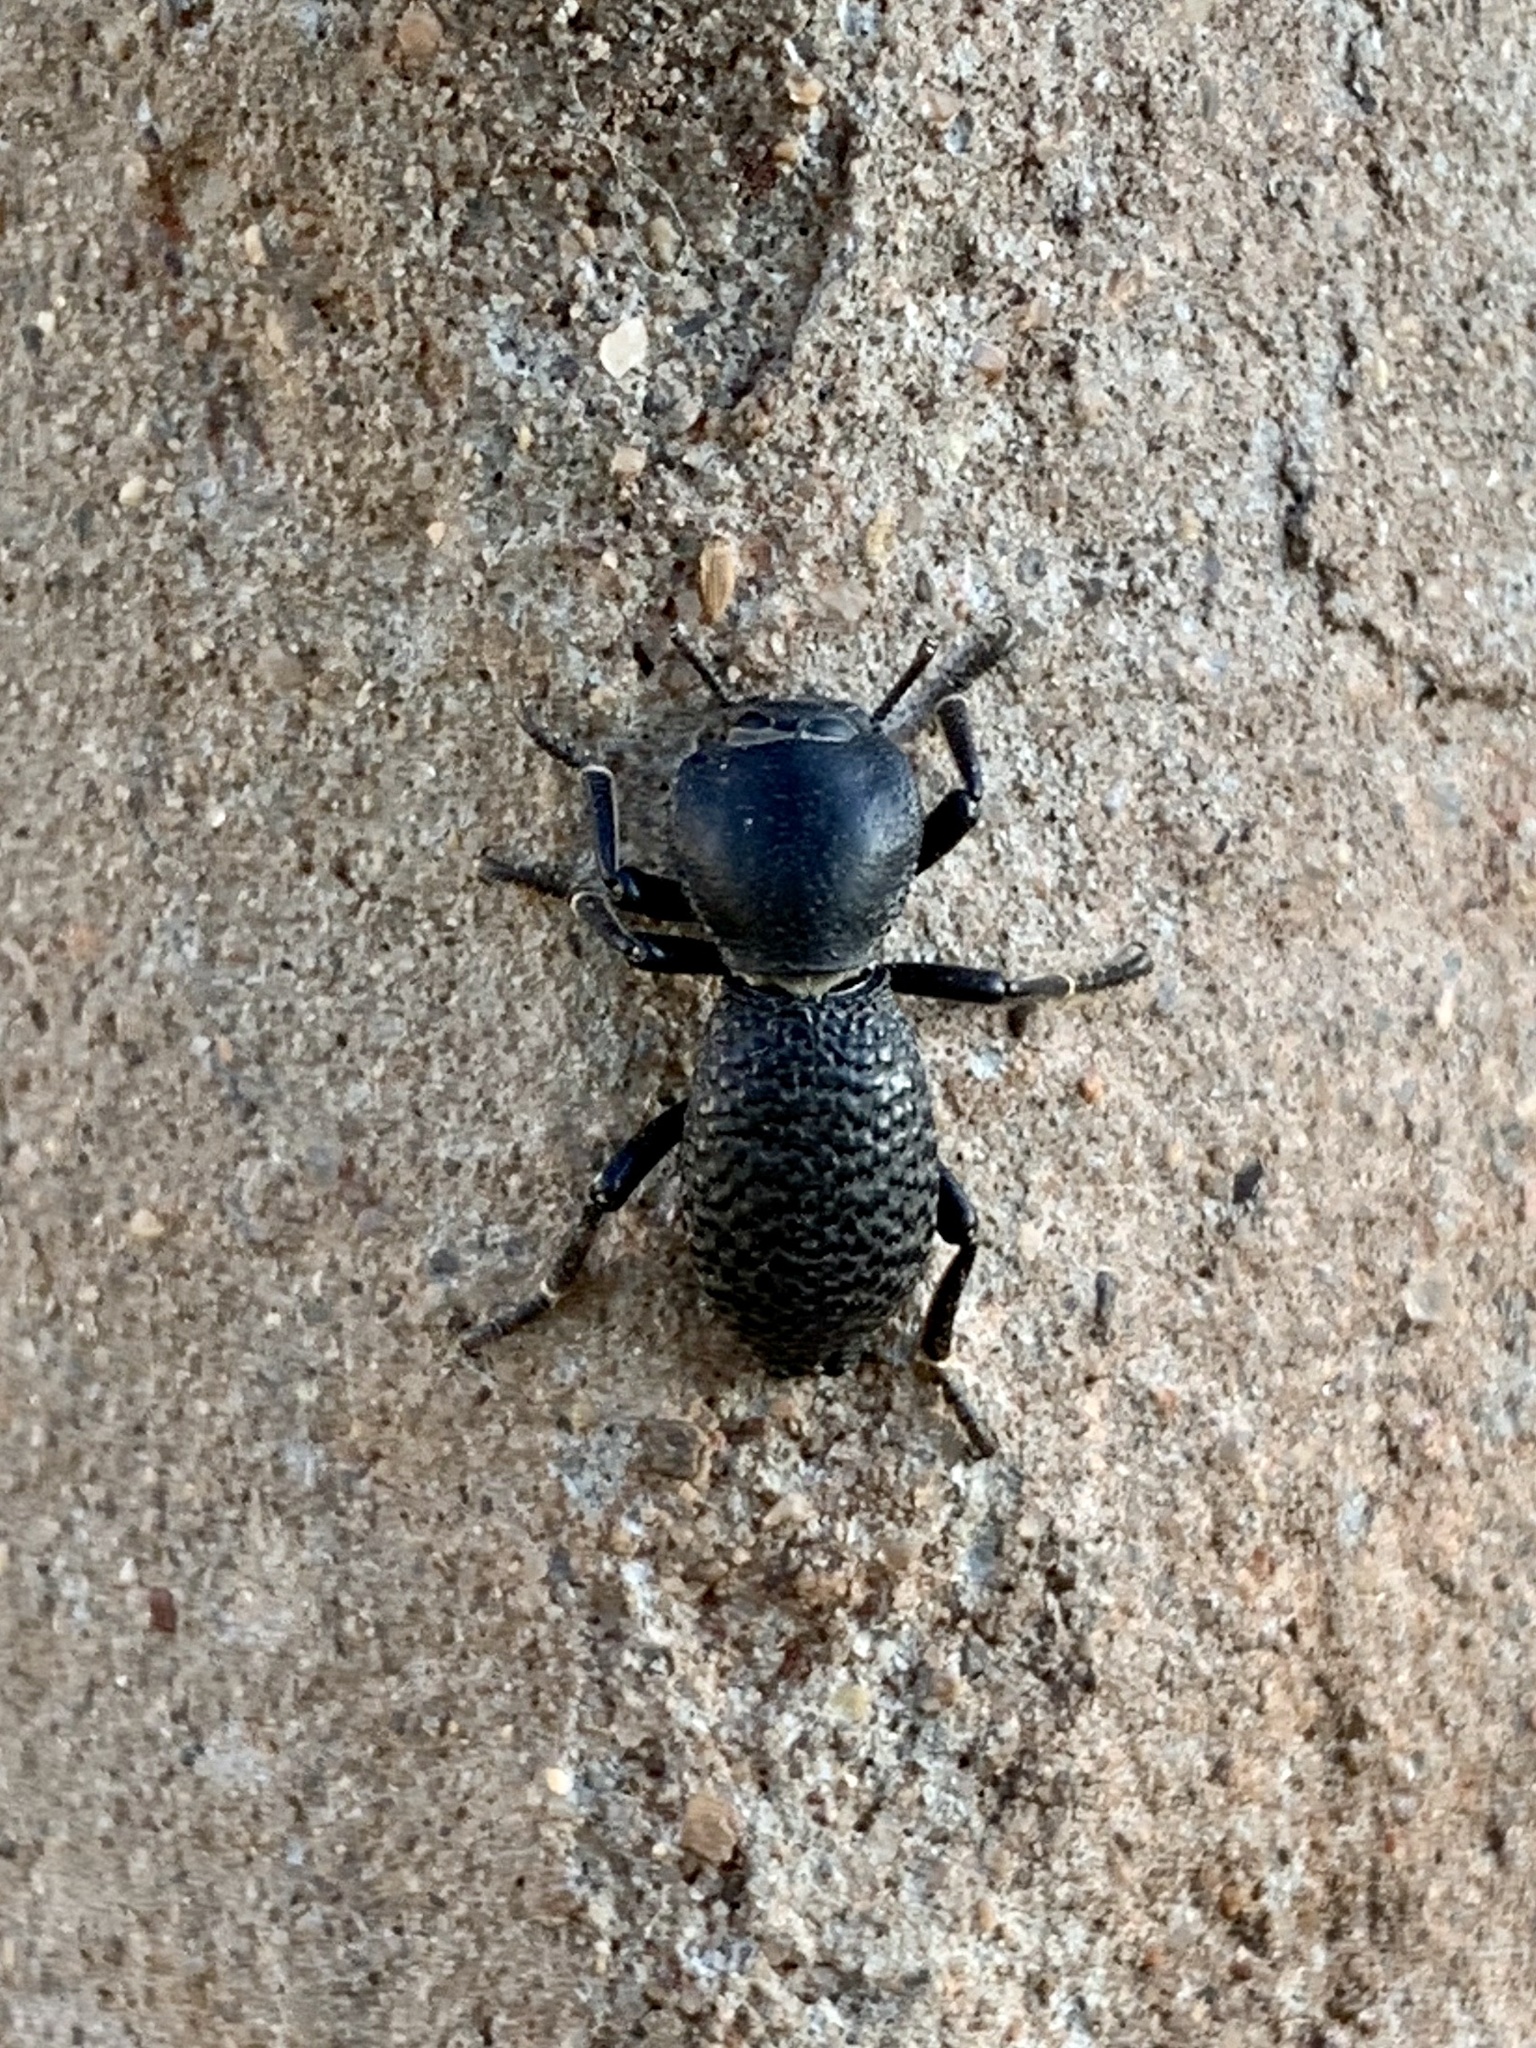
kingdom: Animalia
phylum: Arthropoda
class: Insecta
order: Coleoptera
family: Zopheridae
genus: Zopherus
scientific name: Zopherus concolor
